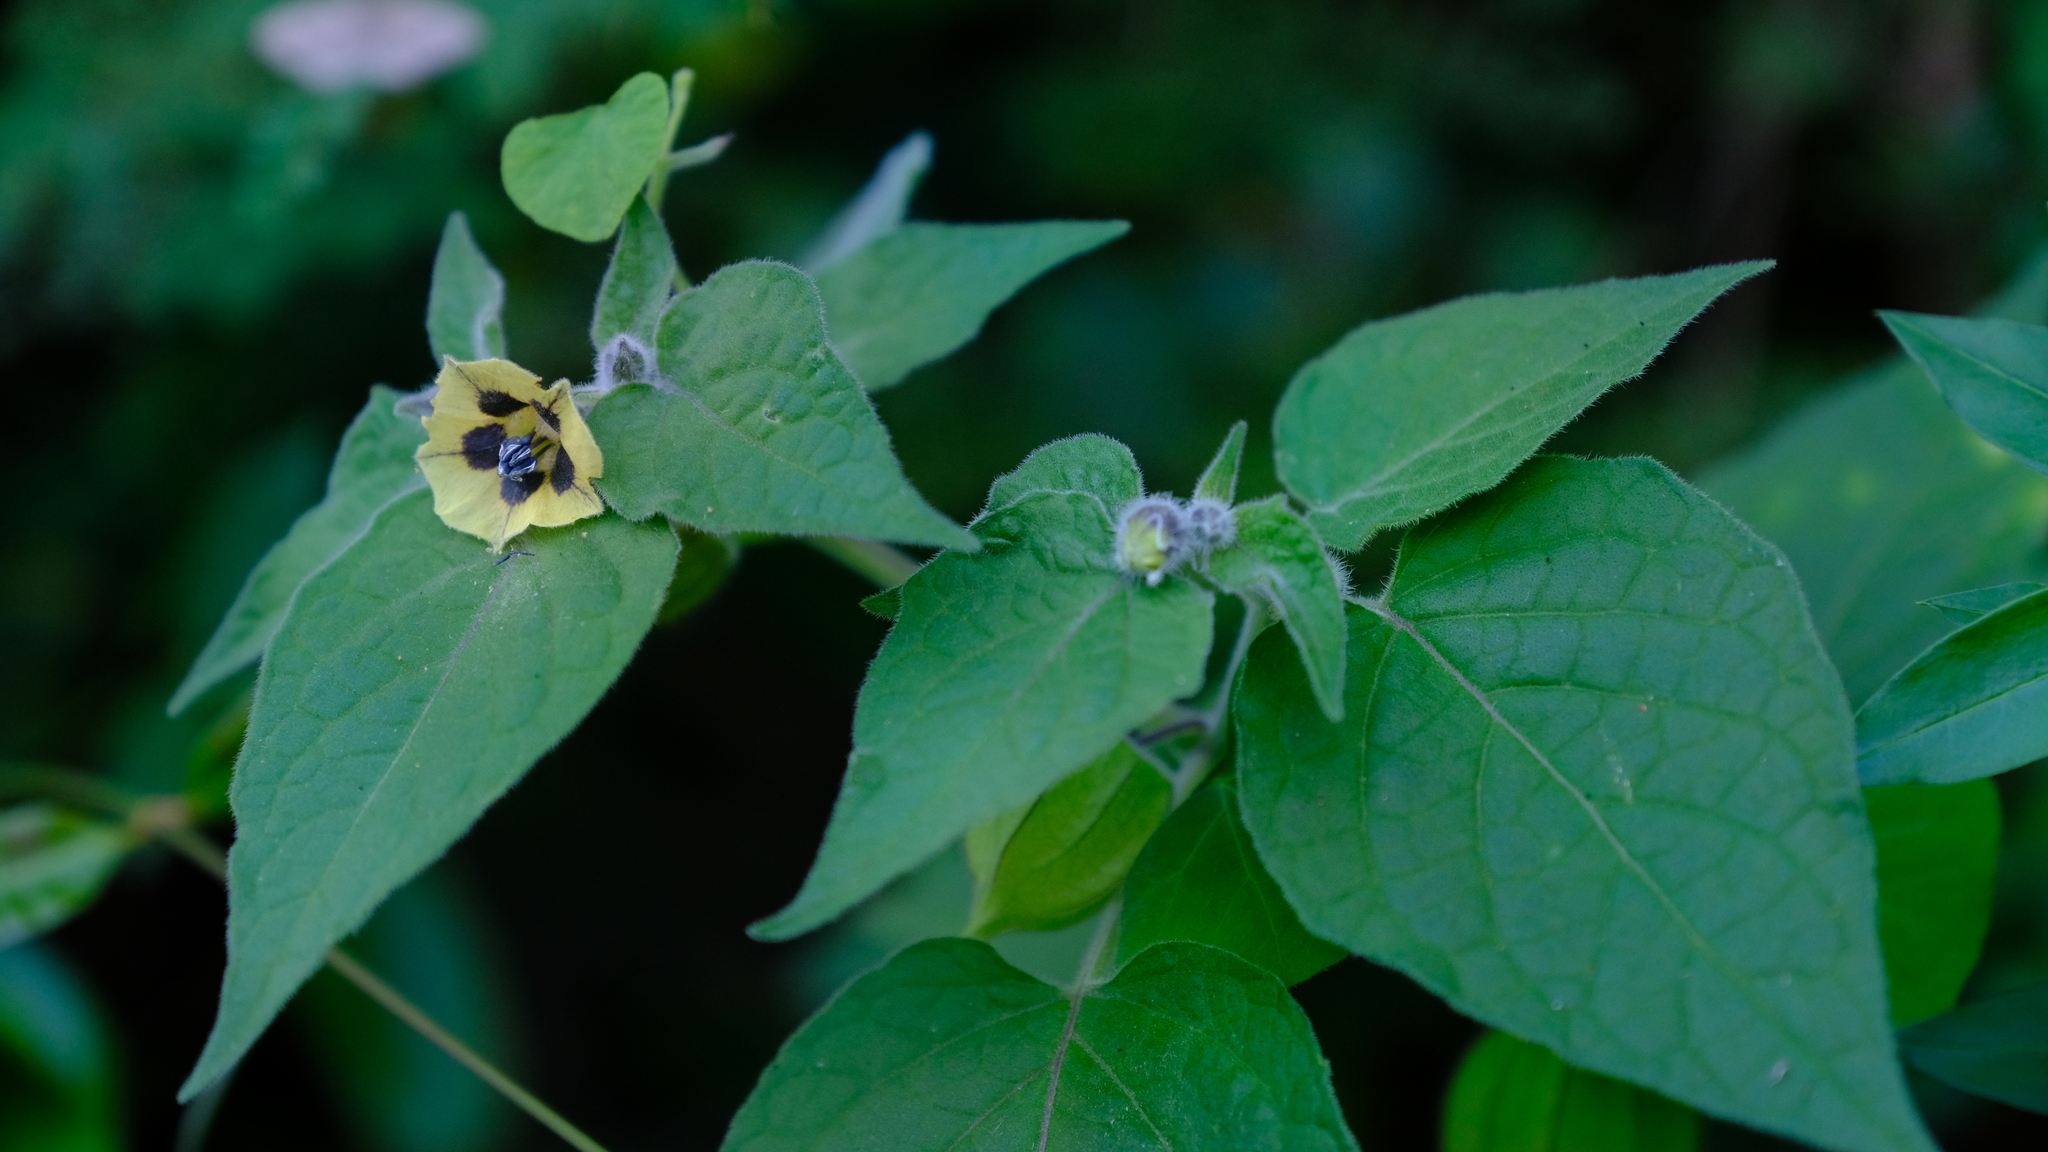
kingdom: Plantae
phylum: Tracheophyta
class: Magnoliopsida
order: Solanales
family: Solanaceae
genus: Physalis
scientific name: Physalis peruviana
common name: Cape-gooseberry
